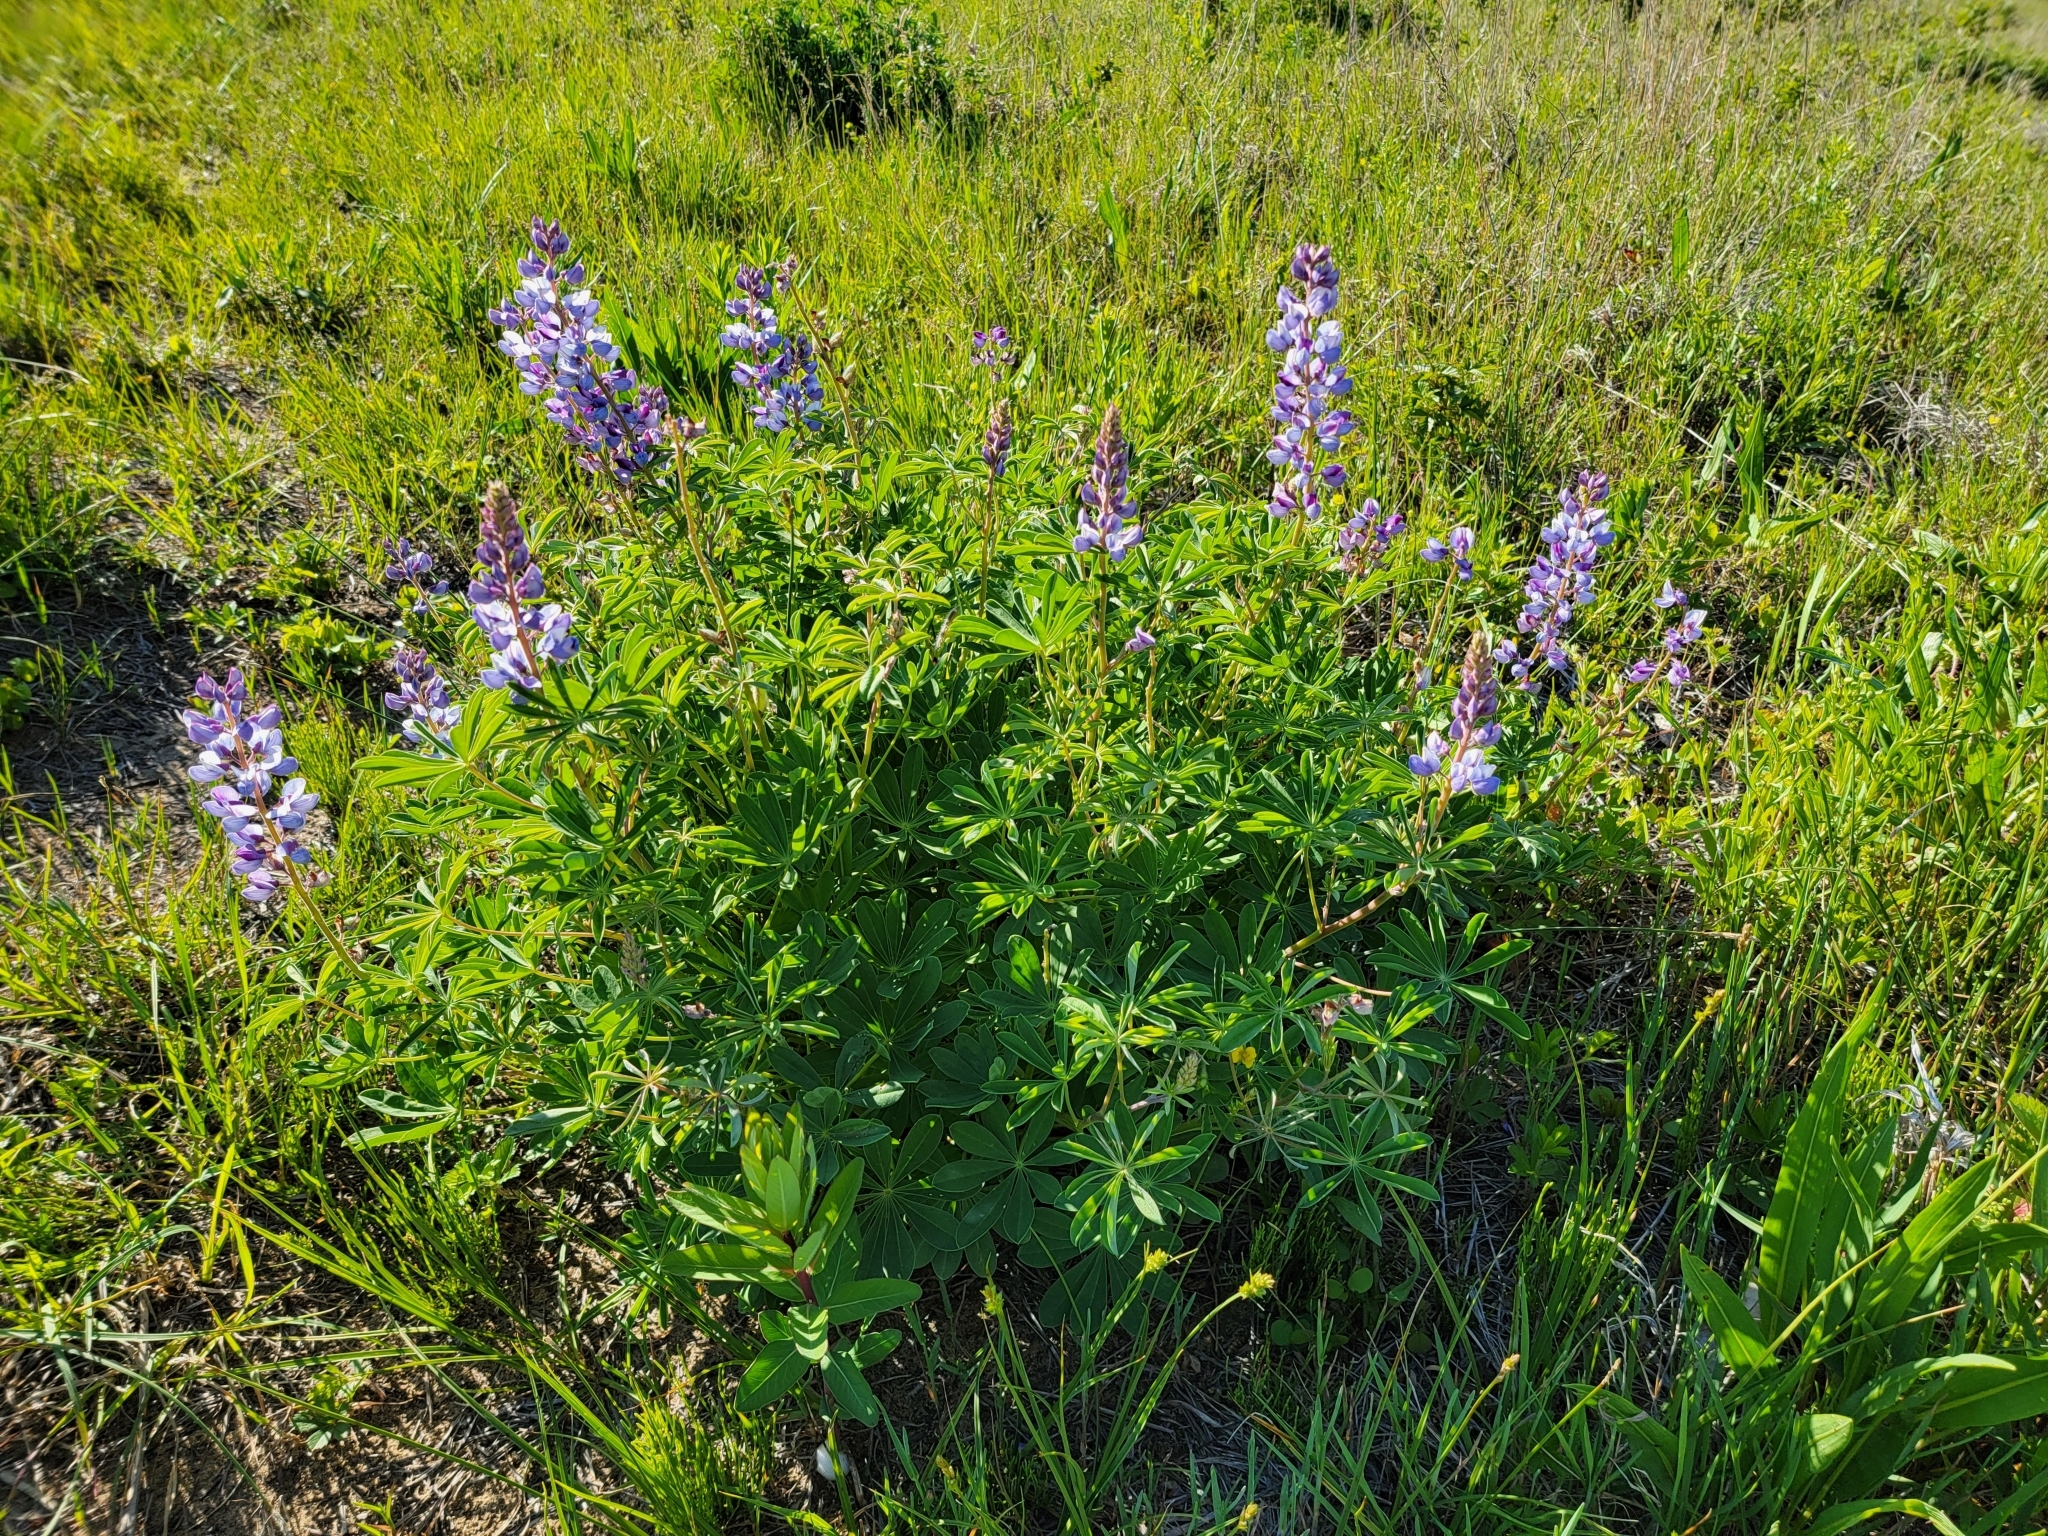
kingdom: Plantae
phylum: Tracheophyta
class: Magnoliopsida
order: Fabales
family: Fabaceae
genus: Lupinus
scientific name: Lupinus perennis
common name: Sundial lupine
